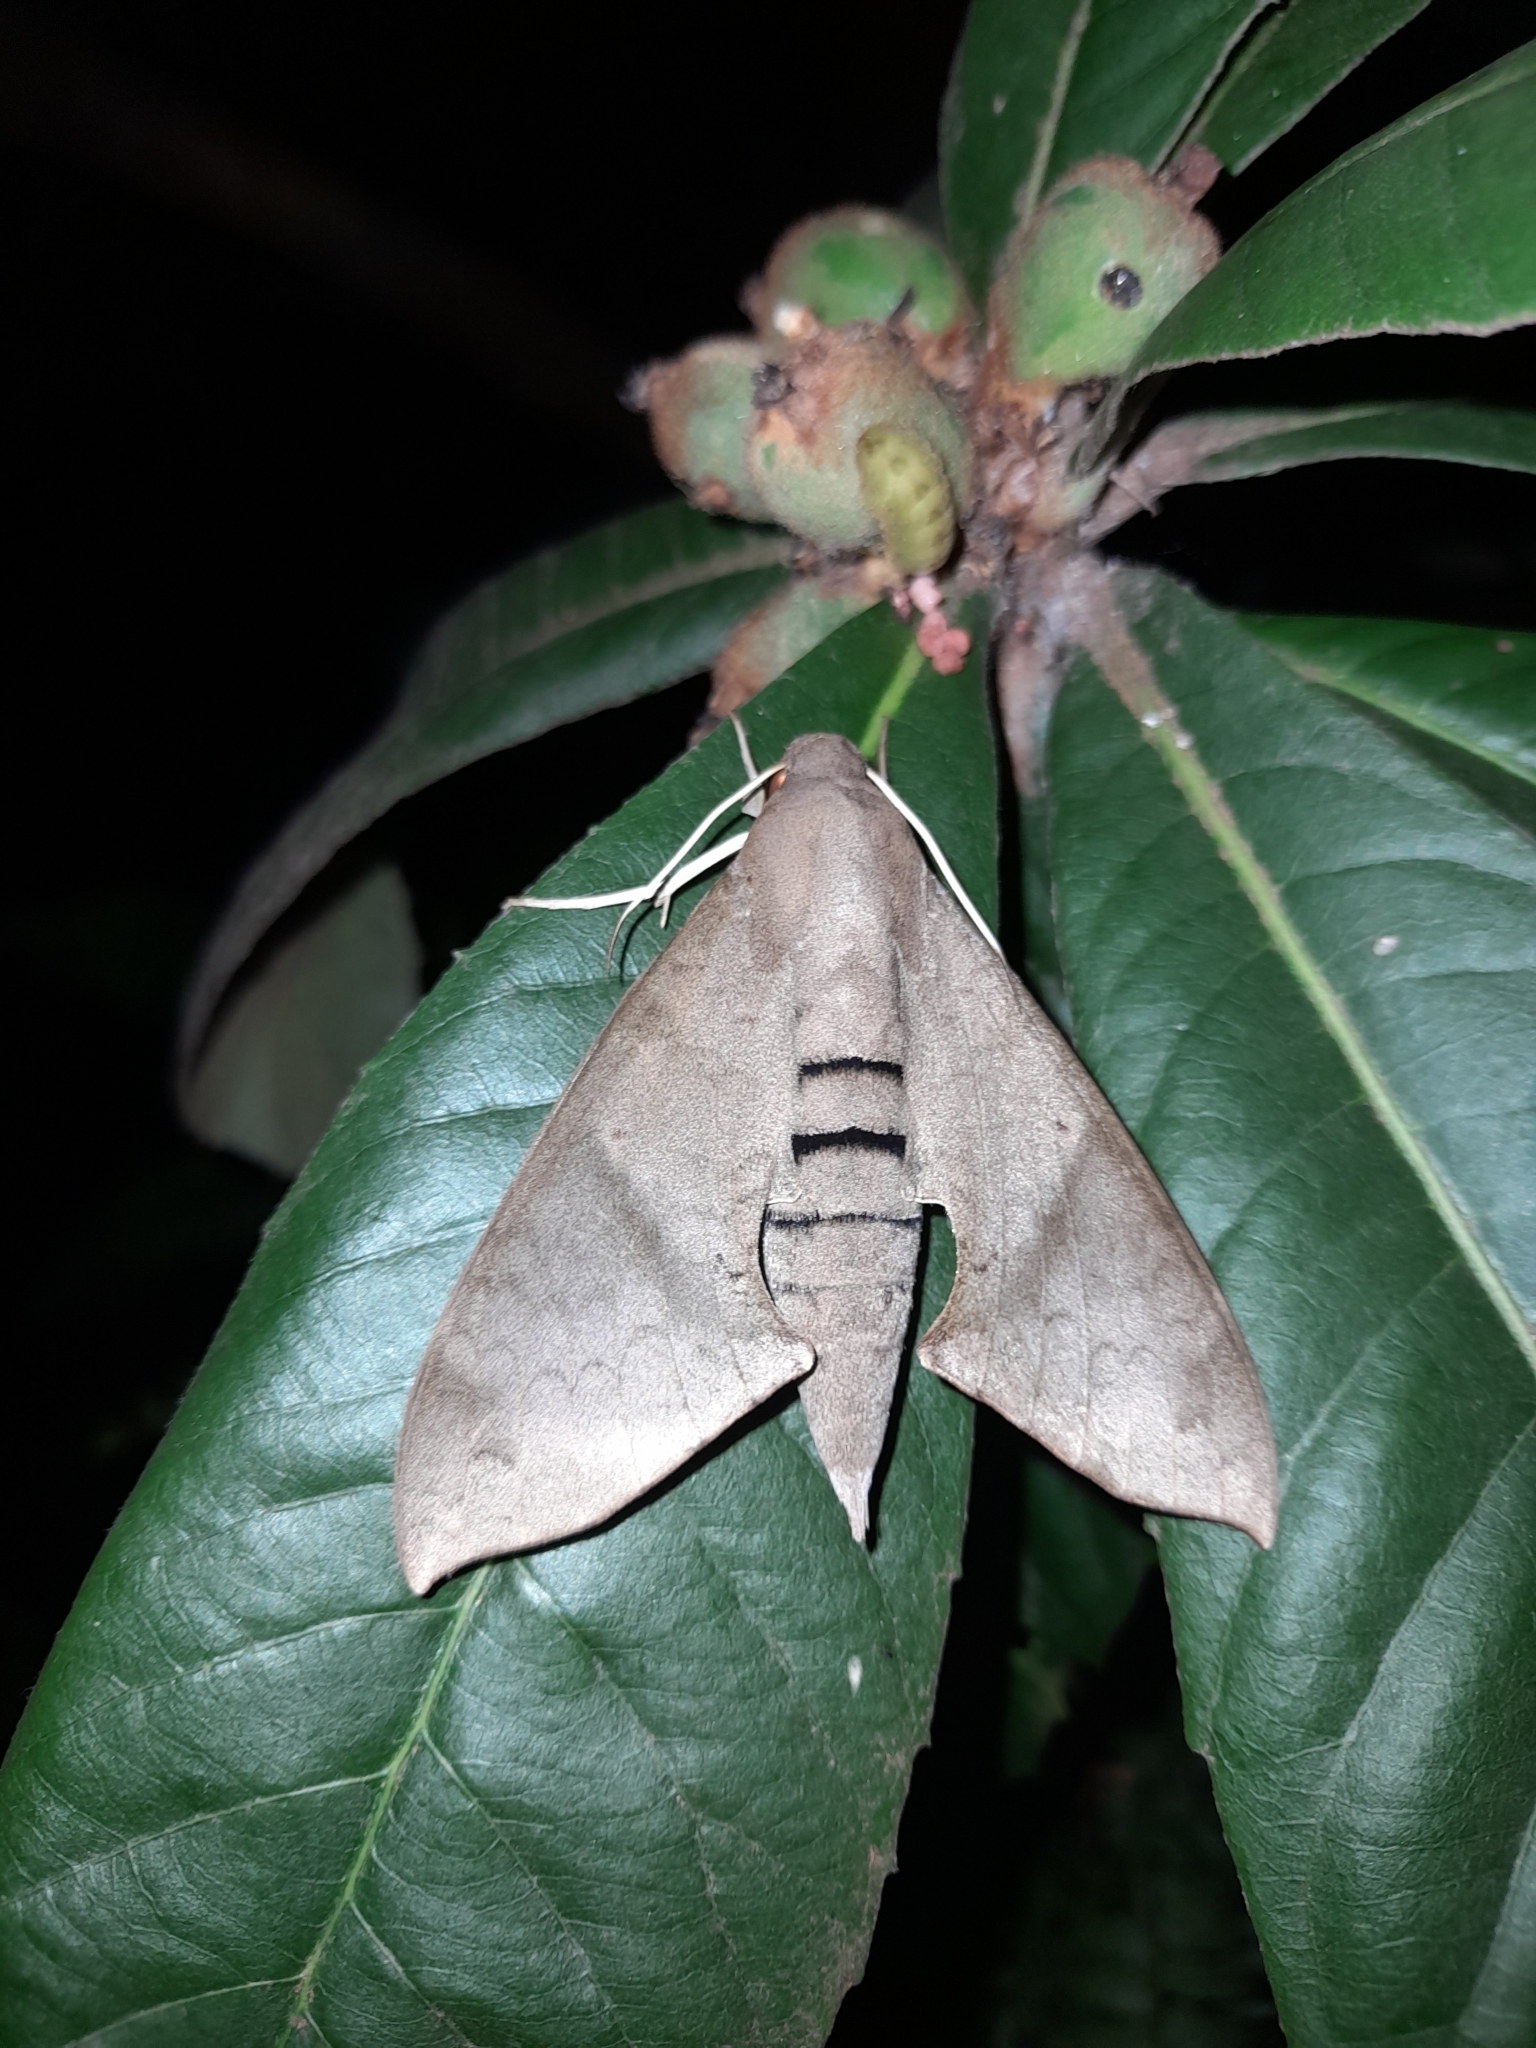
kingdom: Animalia
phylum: Arthropoda
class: Insecta
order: Lepidoptera
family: Sphingidae
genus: Pachylioides
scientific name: Pachylioides resumens
